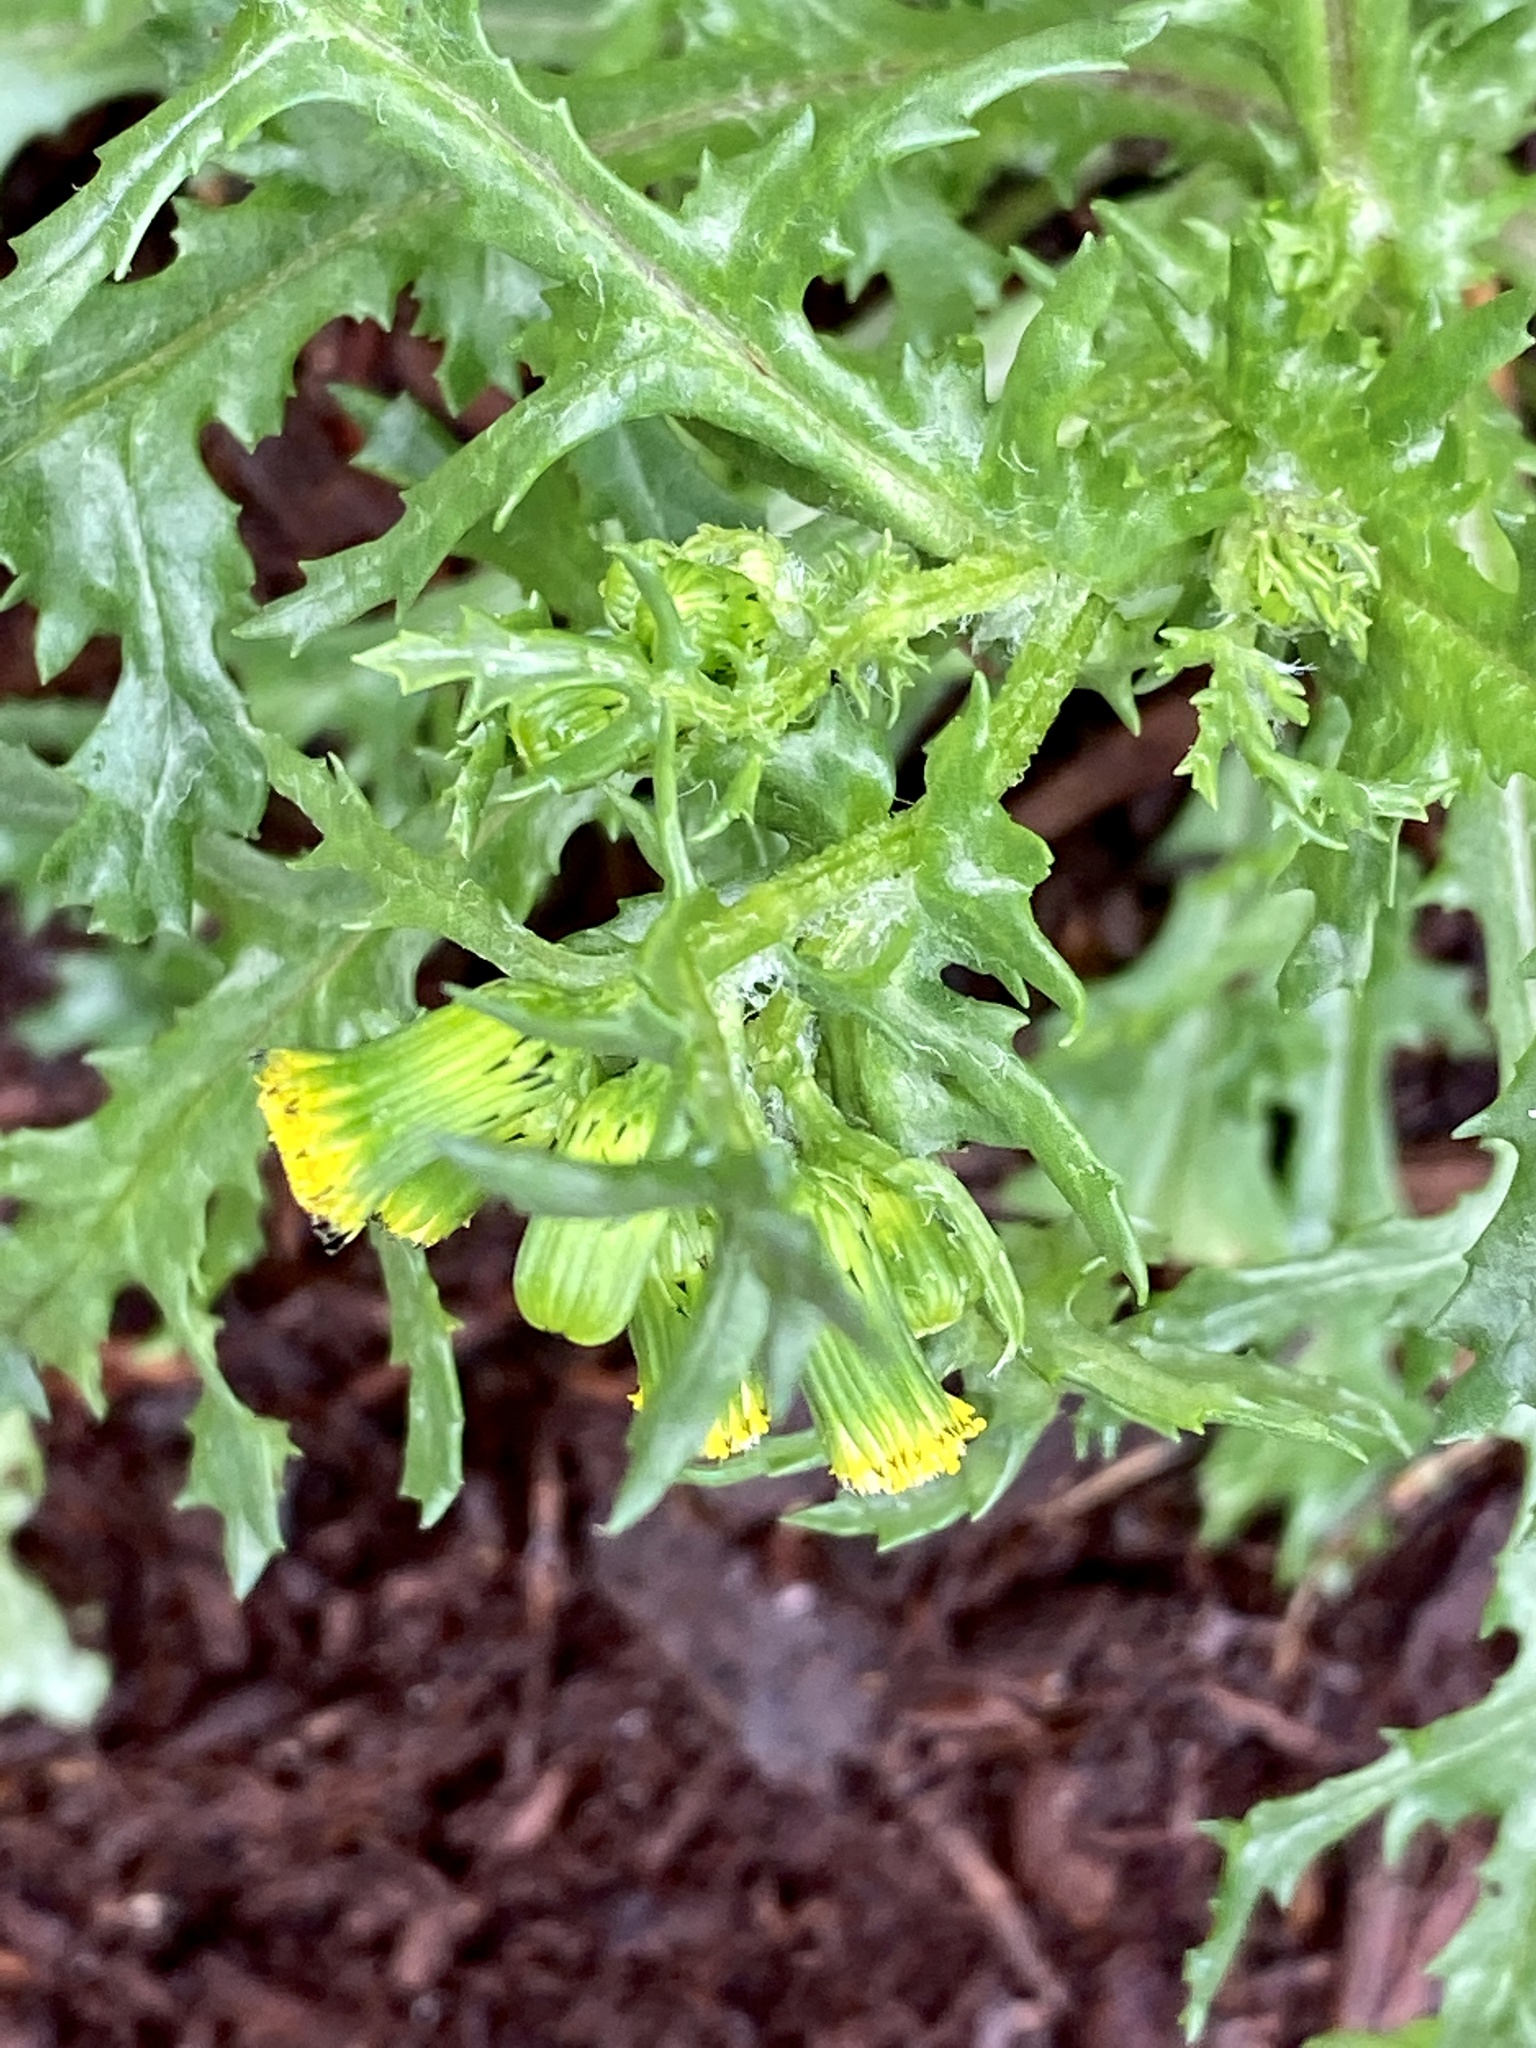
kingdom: Plantae
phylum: Tracheophyta
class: Magnoliopsida
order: Asterales
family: Asteraceae
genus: Senecio
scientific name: Senecio vulgaris
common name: Old-man-in-the-spring
